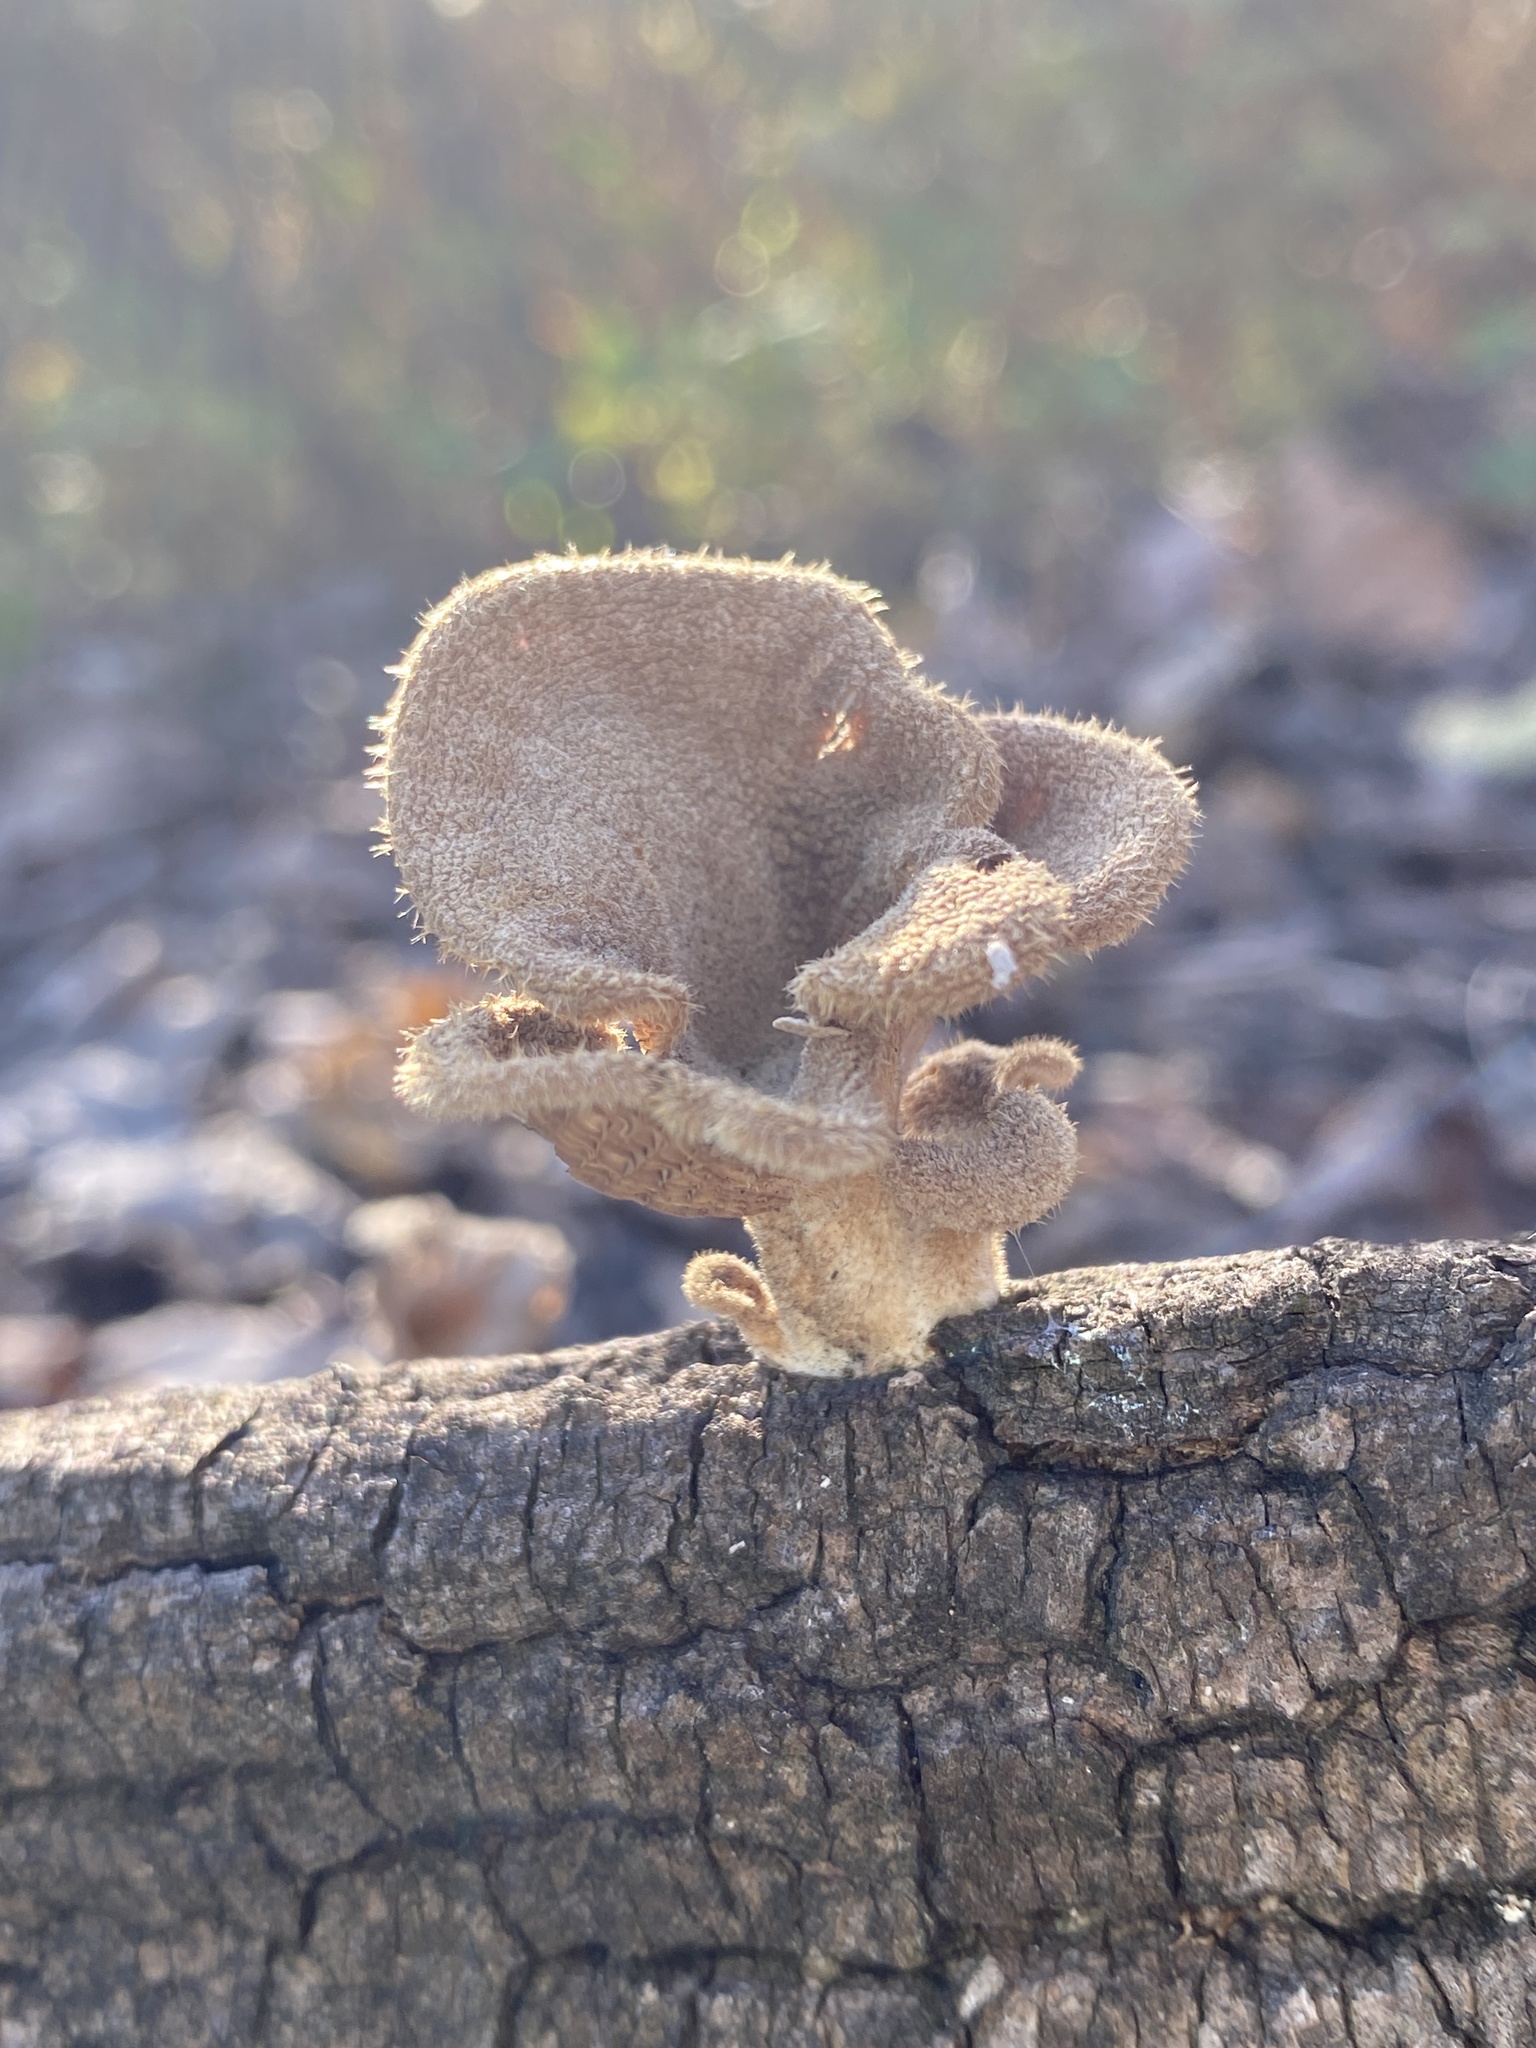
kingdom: Fungi
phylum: Basidiomycota
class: Agaricomycetes
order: Polyporales
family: Panaceae
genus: Panus
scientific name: Panus neostrigosus
